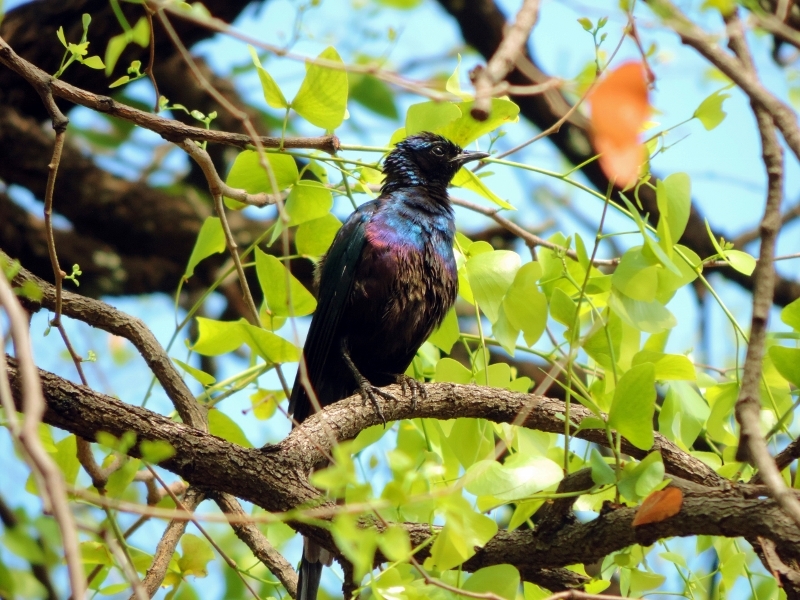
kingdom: Animalia
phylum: Chordata
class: Aves
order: Passeriformes
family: Sturnidae
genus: Lamprotornis
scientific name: Lamprotornis mevesii
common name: Meves's starling
